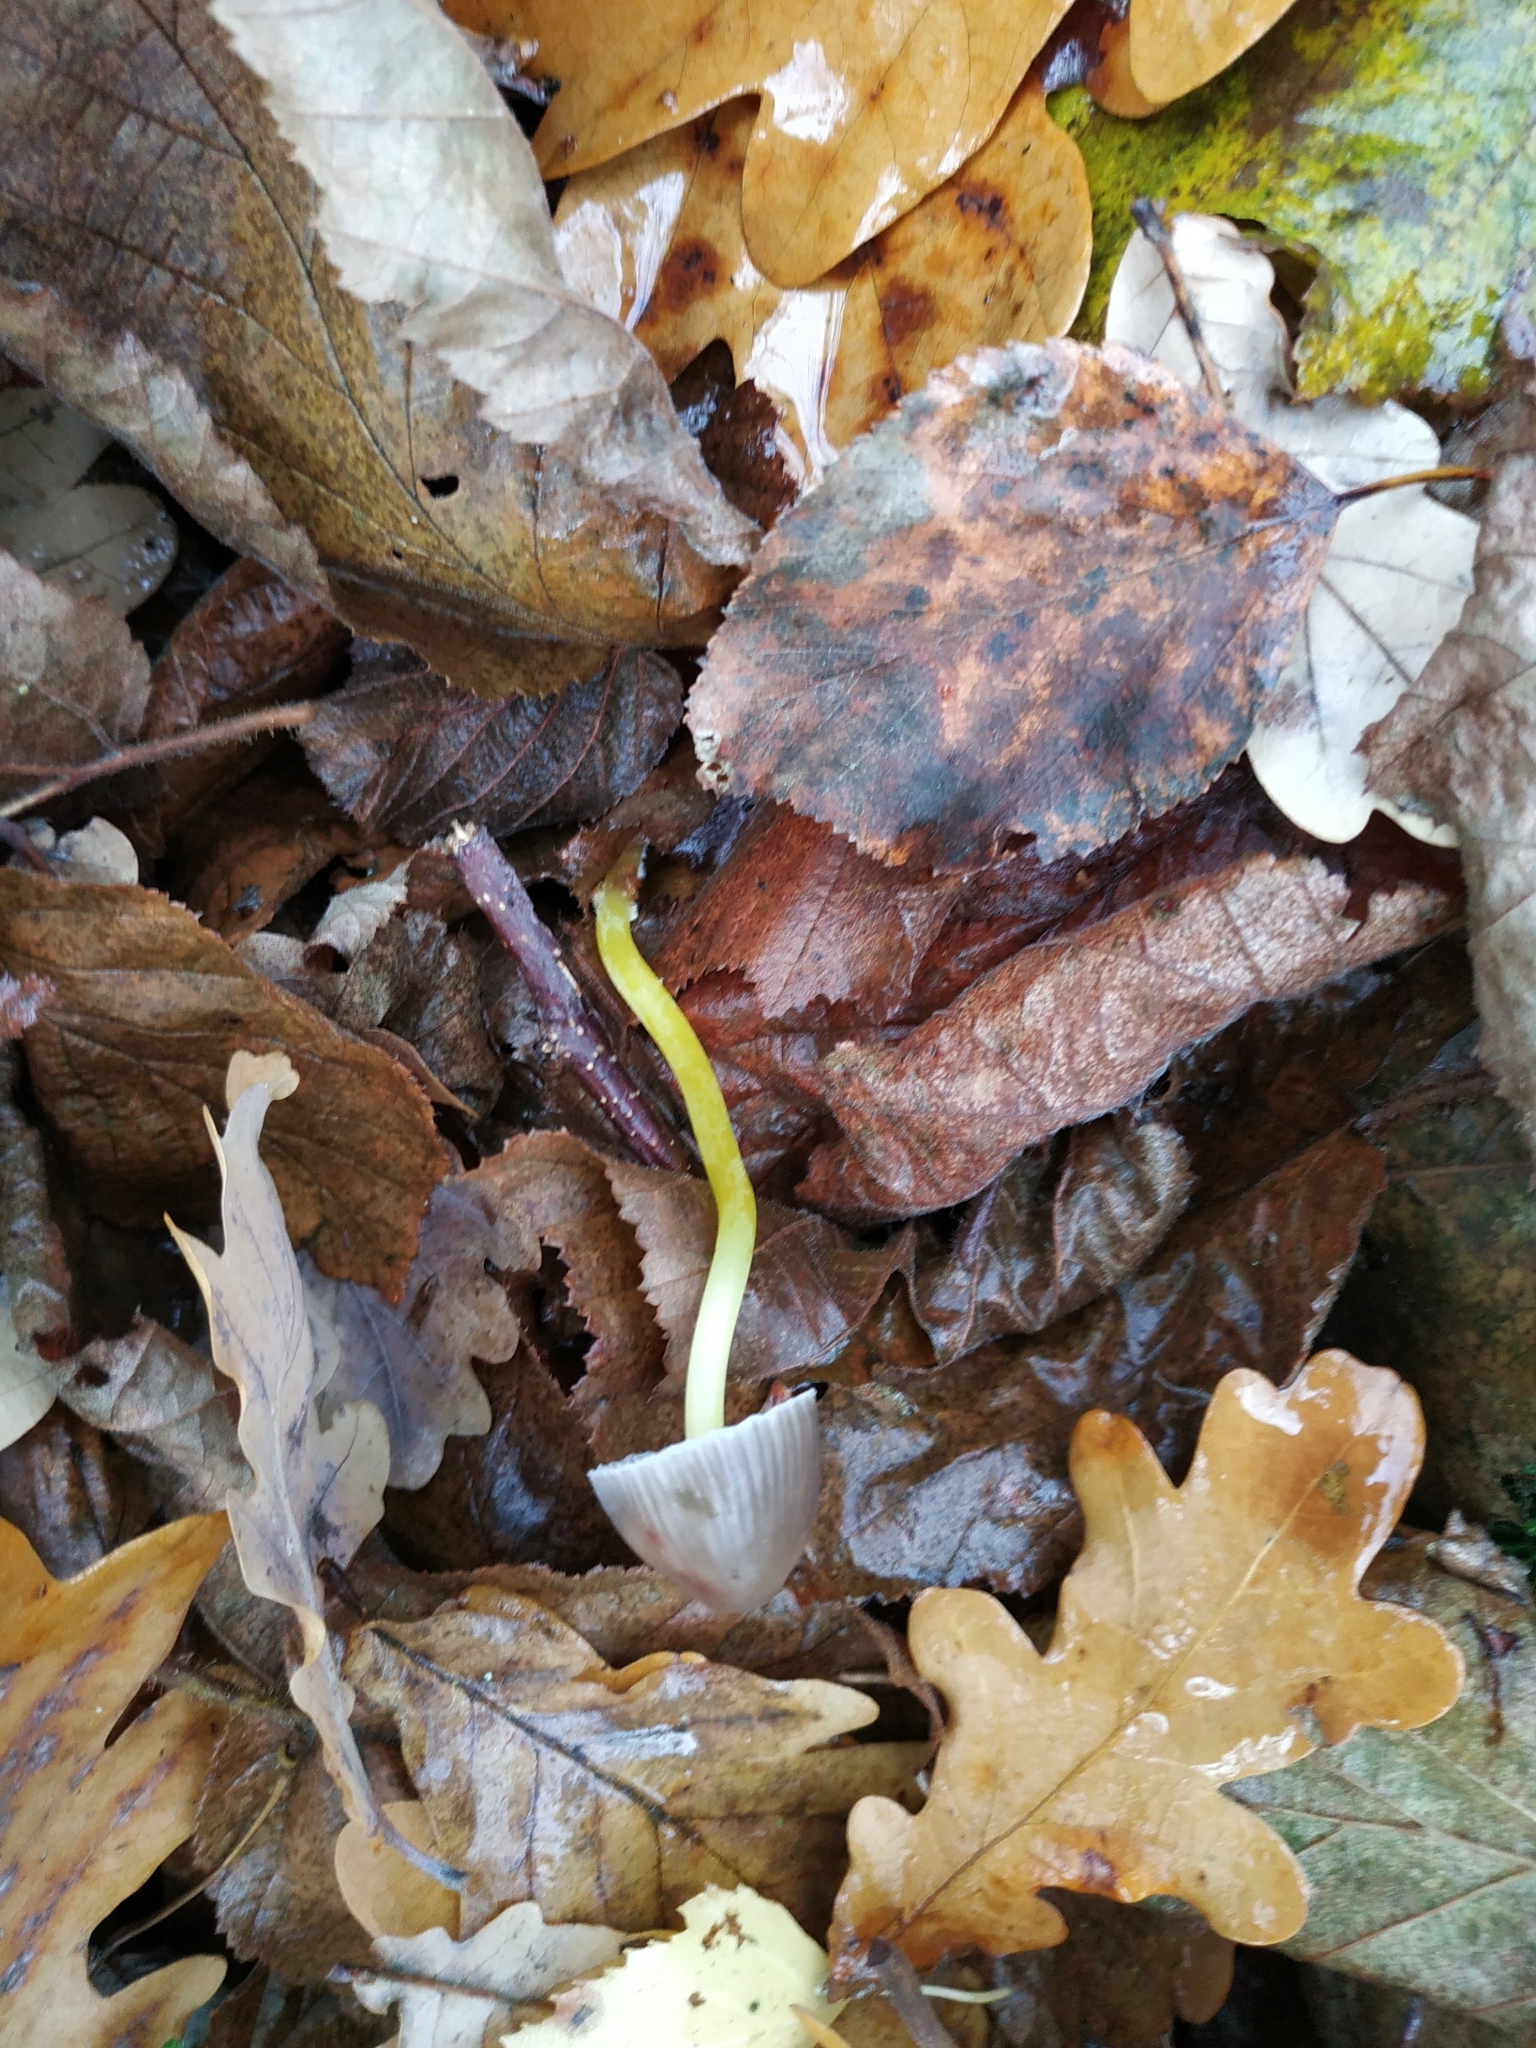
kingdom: Fungi
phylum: Basidiomycota
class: Agaricomycetes
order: Agaricales
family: Mycenaceae
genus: Mycena
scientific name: Mycena epipterygia
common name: Yellowleg bonnet
